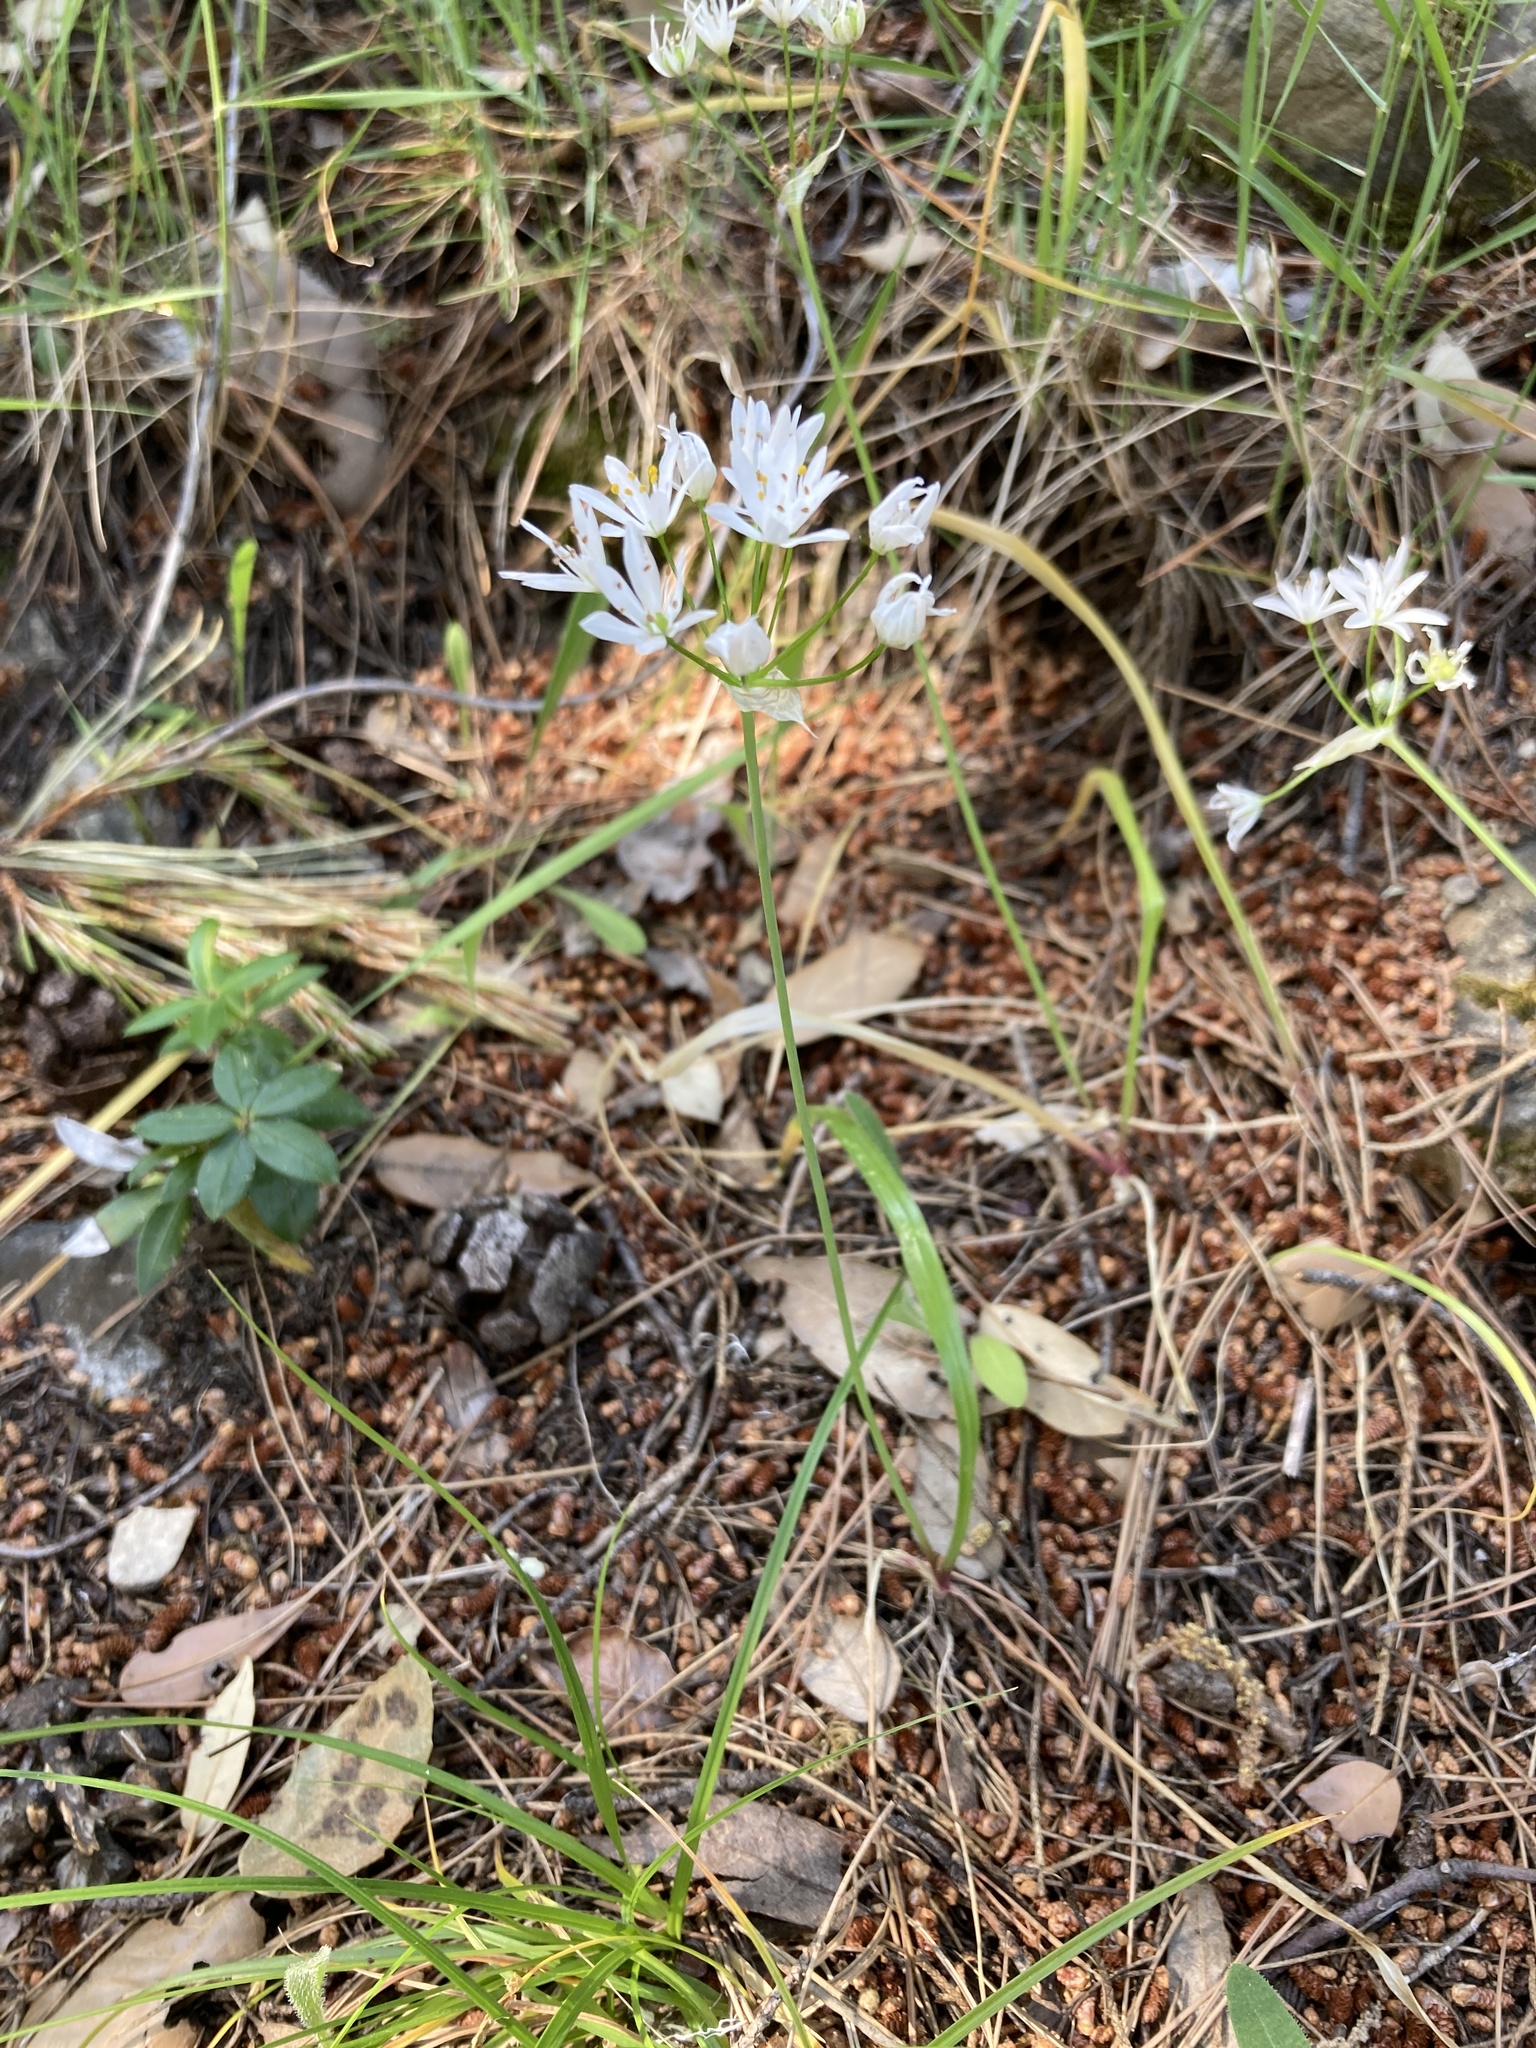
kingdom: Plantae
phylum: Tracheophyta
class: Liliopsida
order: Asparagales
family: Amaryllidaceae
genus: Allium
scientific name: Allium subhirsutum
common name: Hairy garlic
